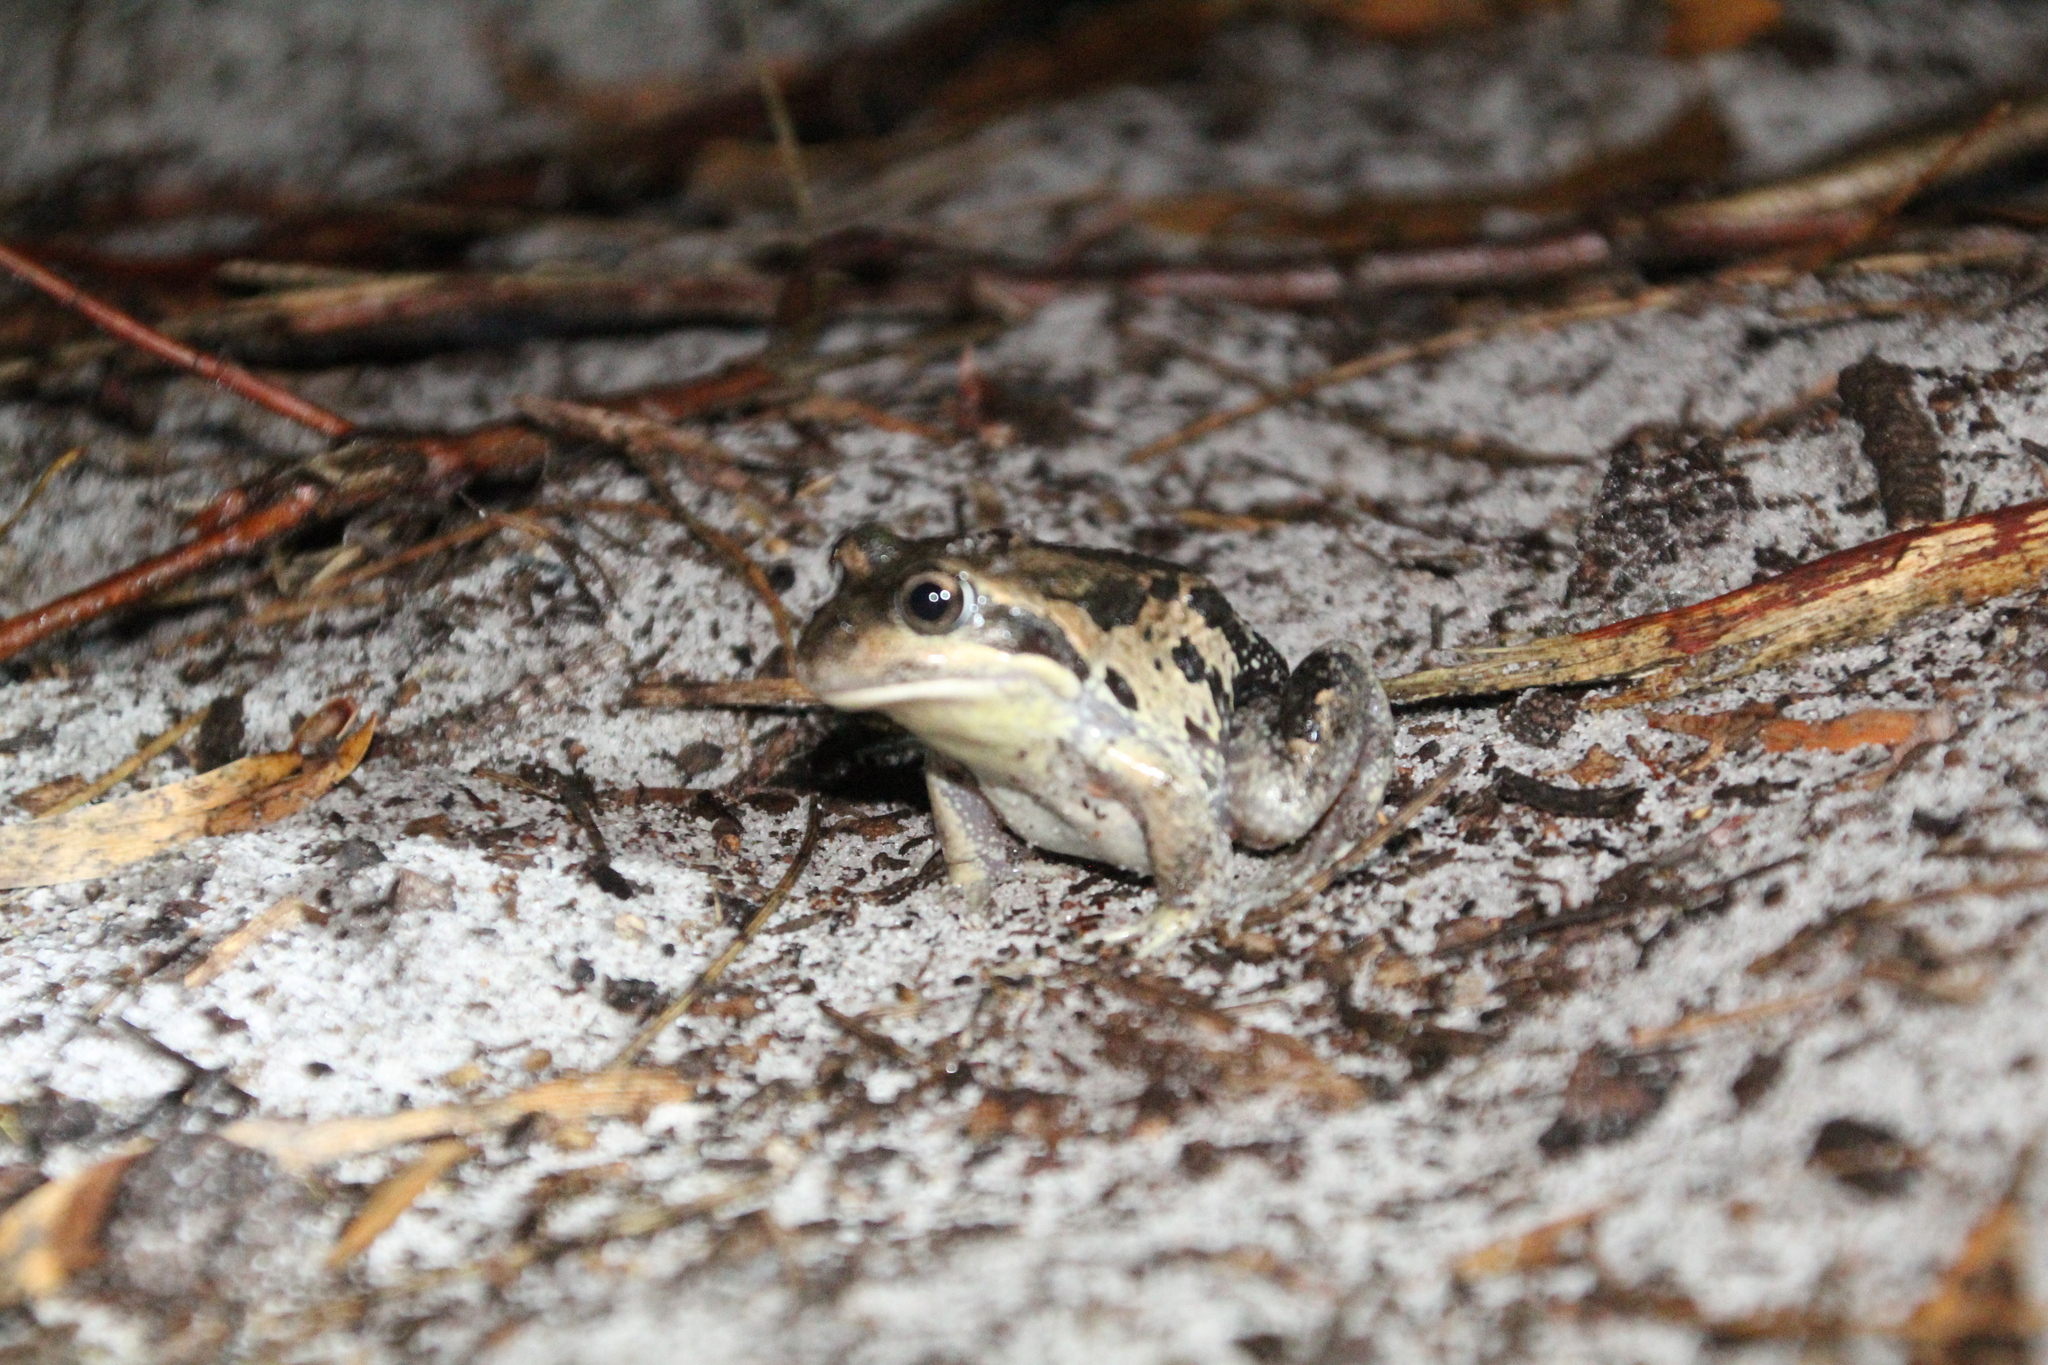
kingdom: Animalia
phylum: Chordata
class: Amphibia
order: Anura
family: Limnodynastidae
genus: Limnodynastes
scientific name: Limnodynastes dorsalis
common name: Banjo frog
